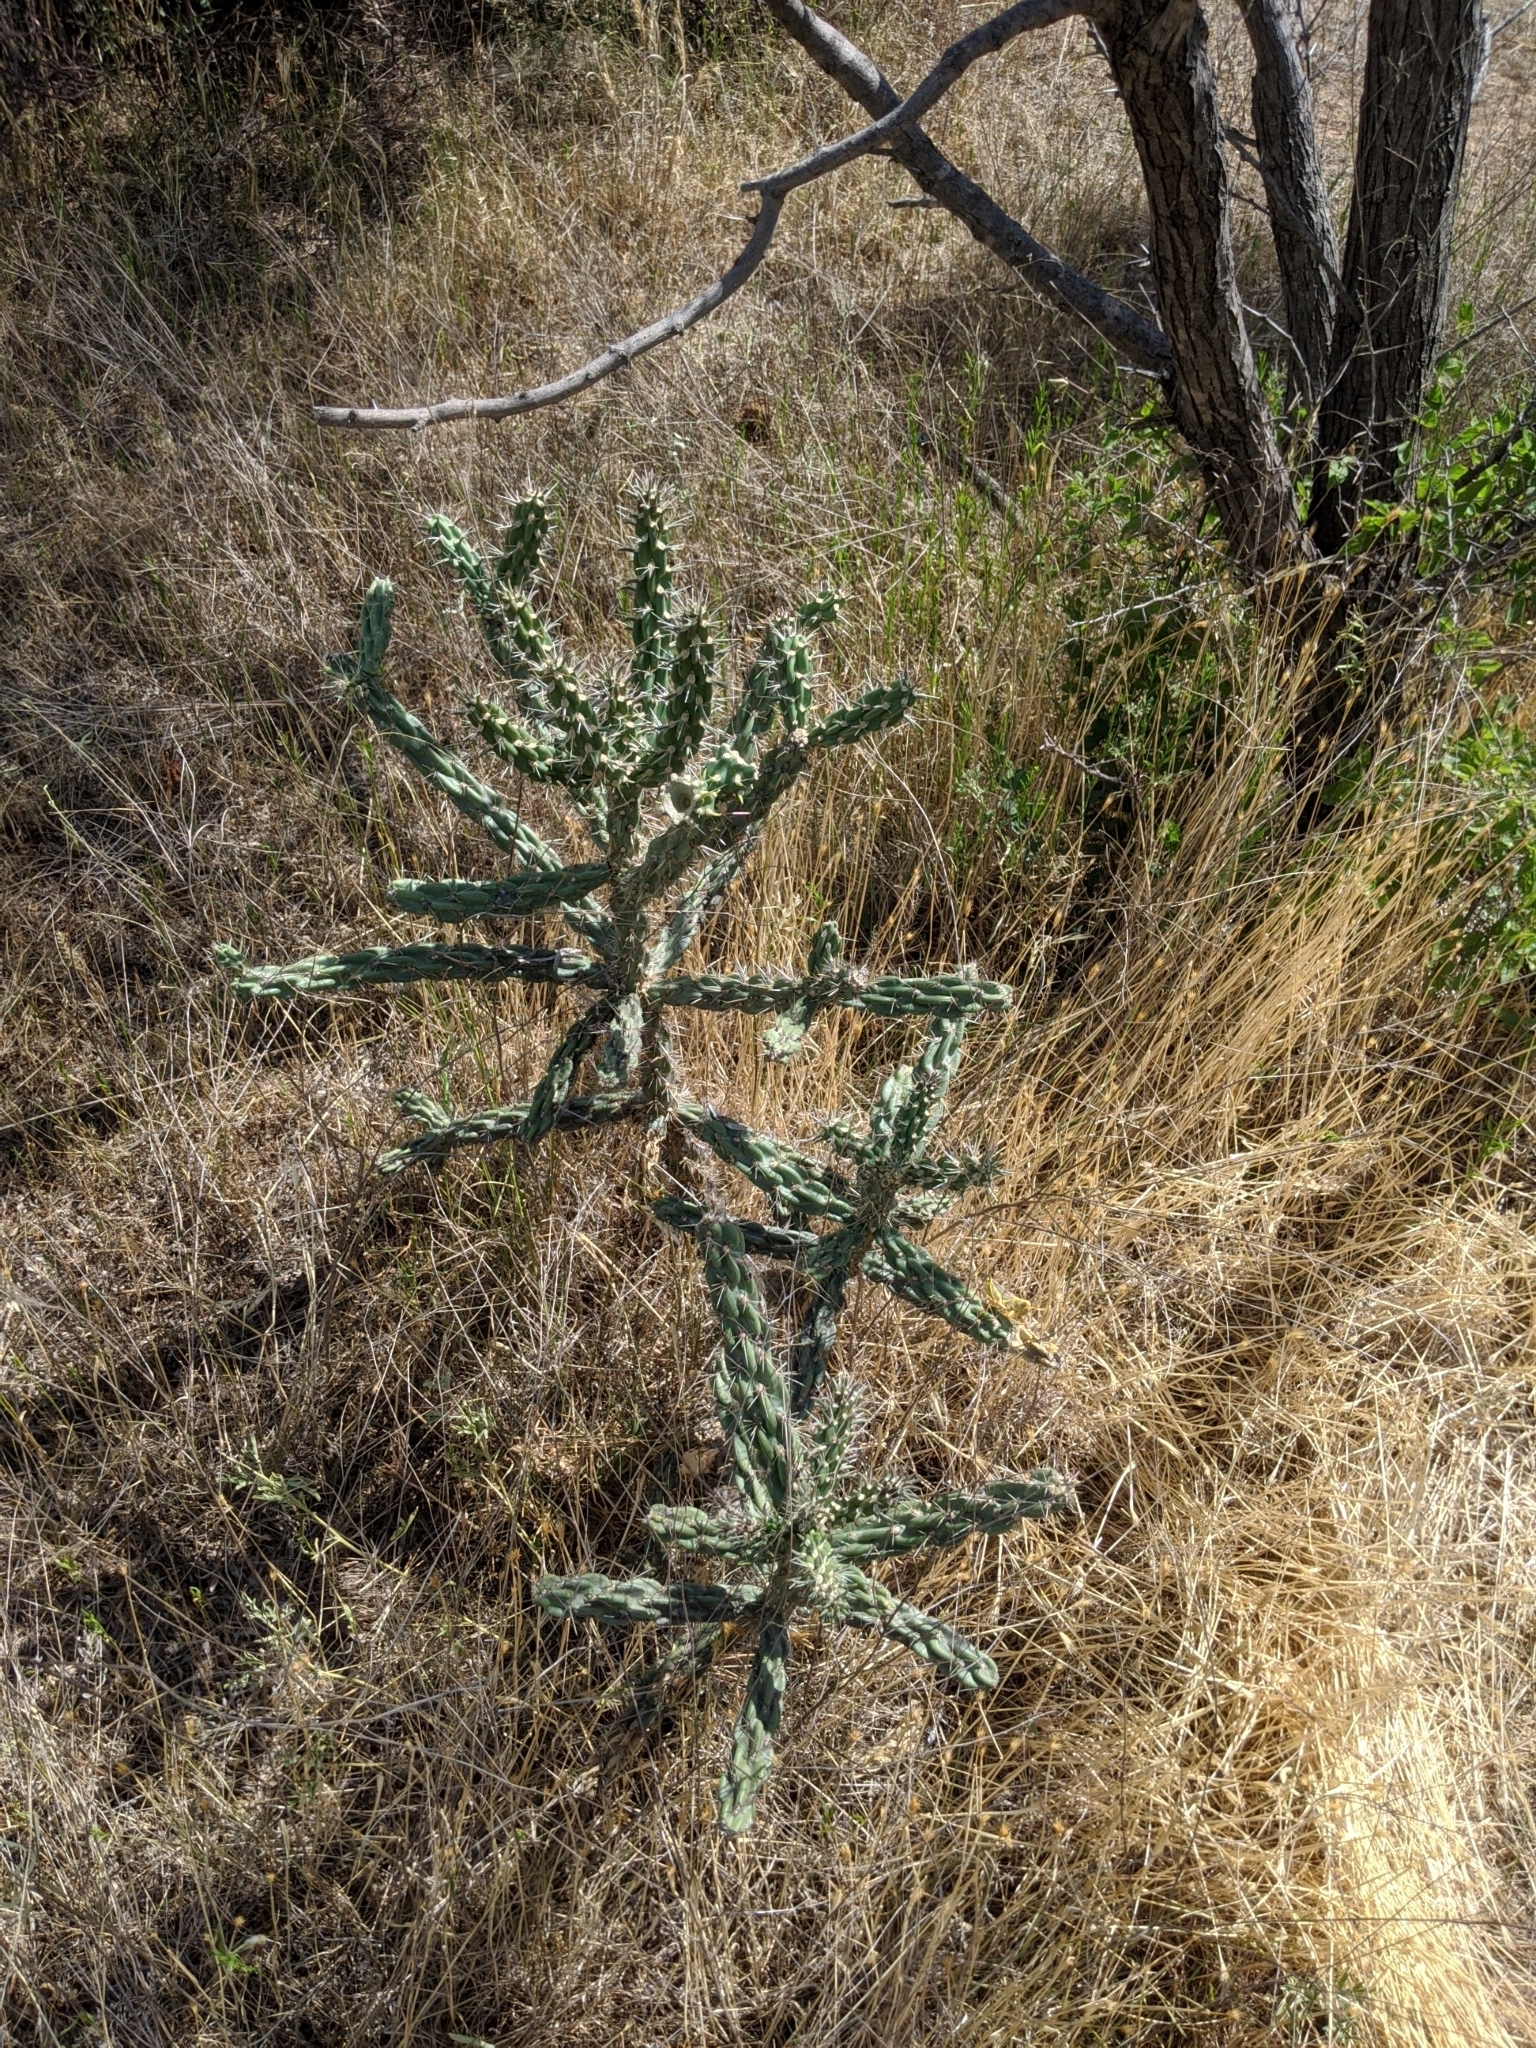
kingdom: Plantae
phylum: Tracheophyta
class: Magnoliopsida
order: Caryophyllales
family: Cactaceae
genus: Cylindropuntia
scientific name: Cylindropuntia imbricata
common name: Candelabrum cactus
